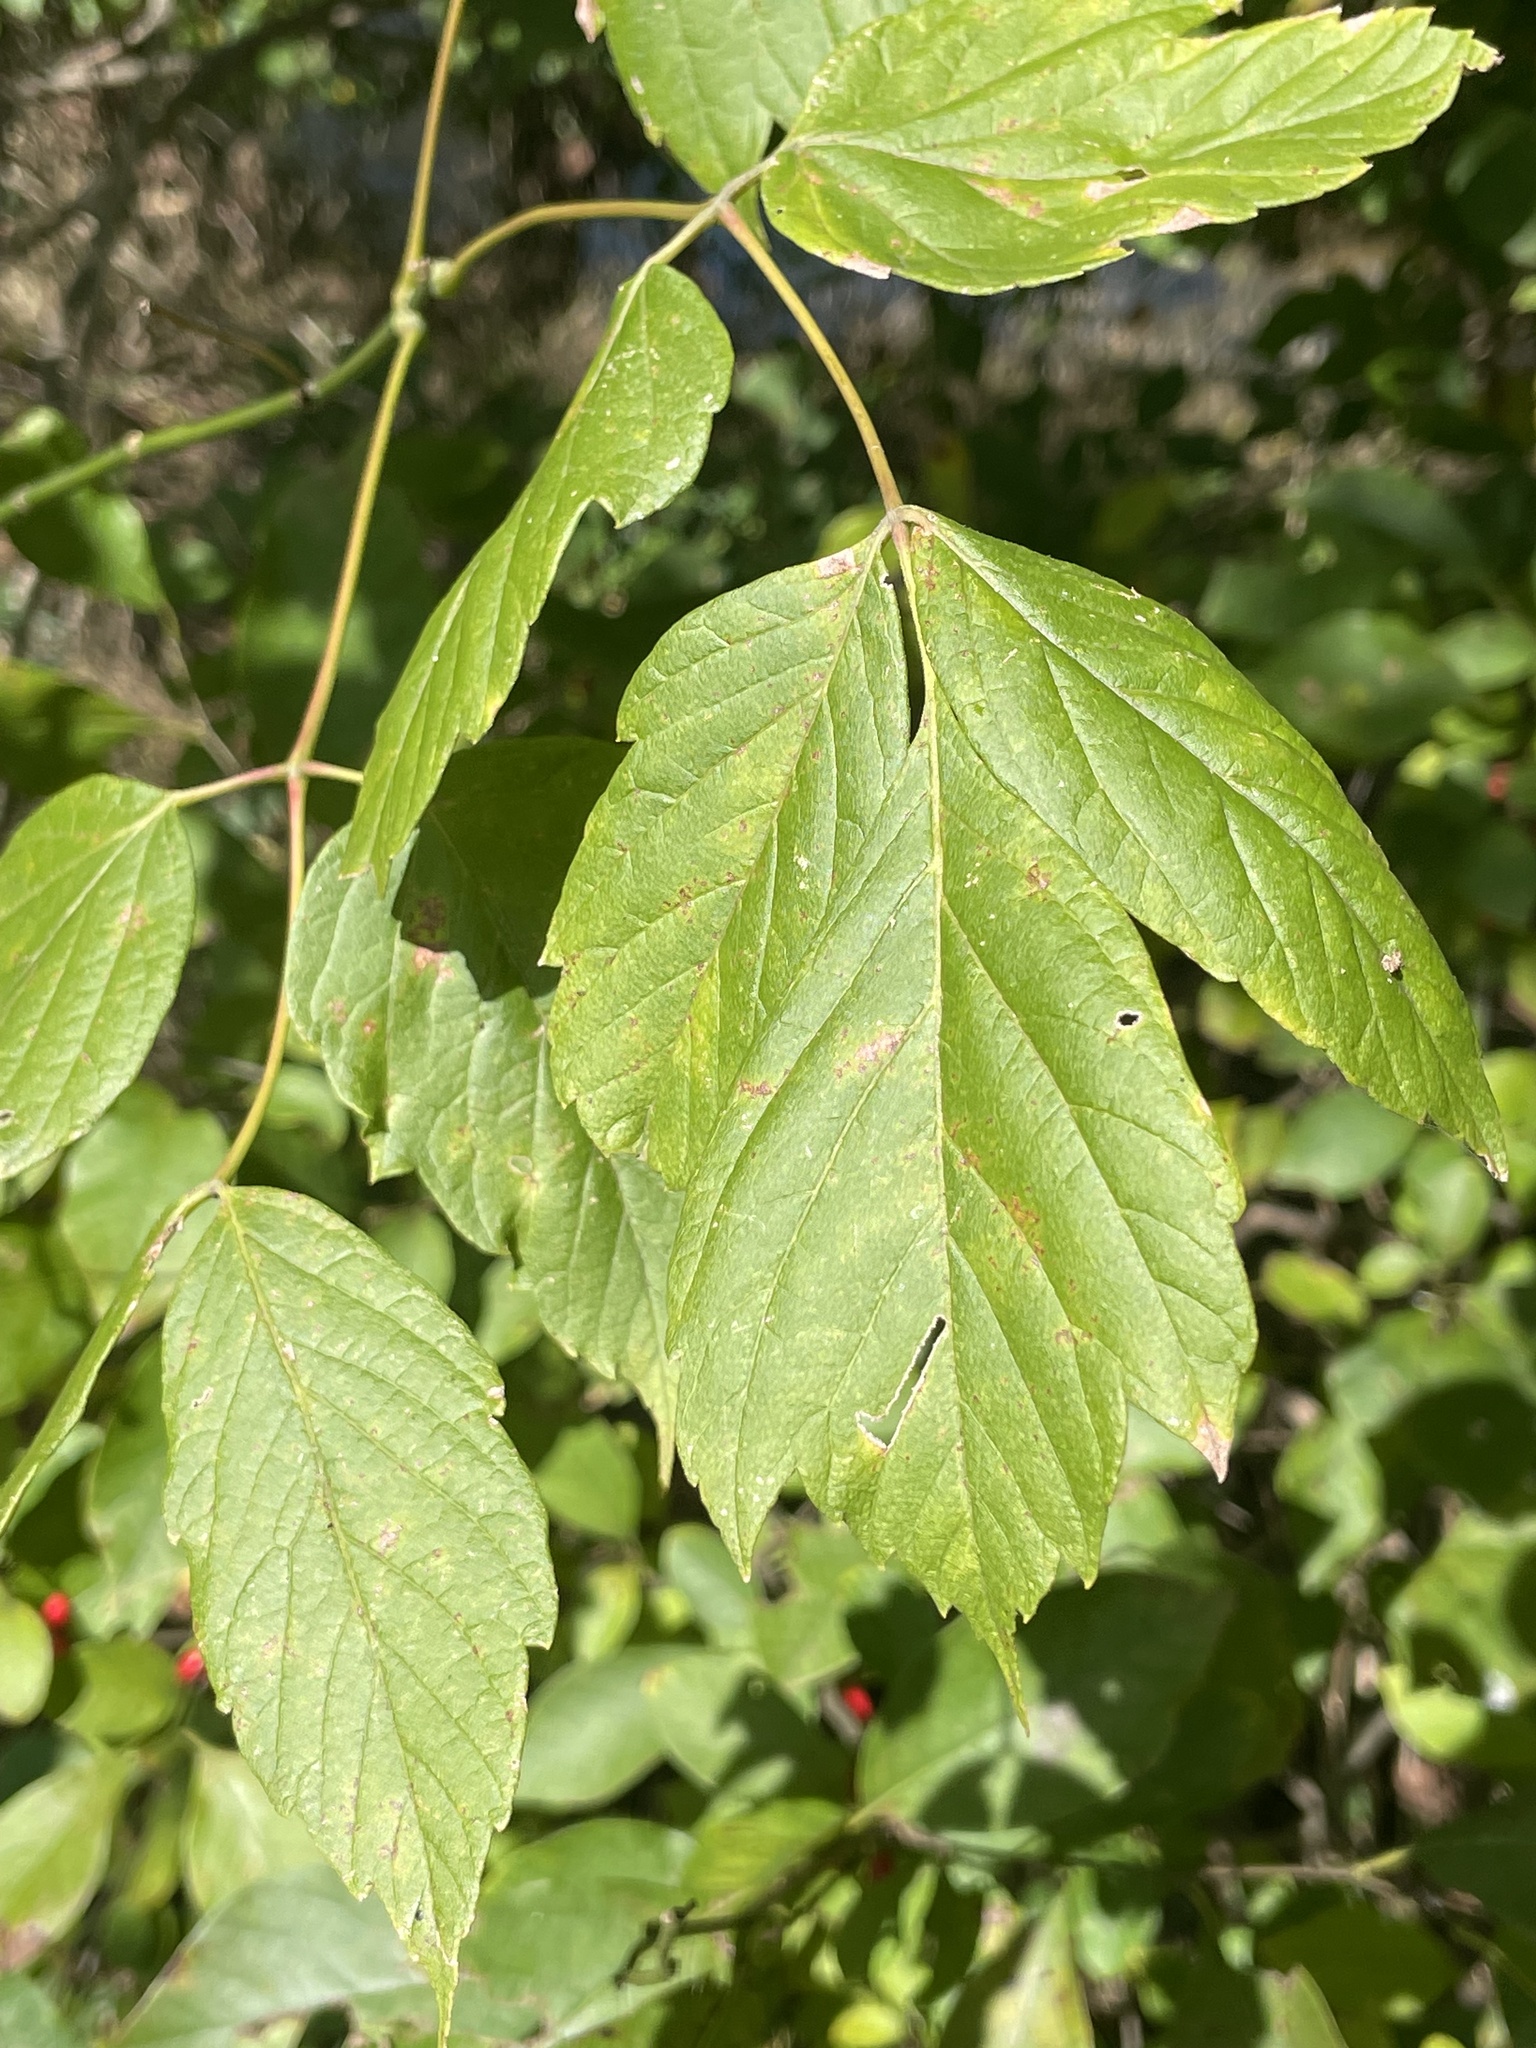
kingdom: Plantae
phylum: Tracheophyta
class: Magnoliopsida
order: Sapindales
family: Sapindaceae
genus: Acer
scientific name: Acer negundo
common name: Ashleaf maple
